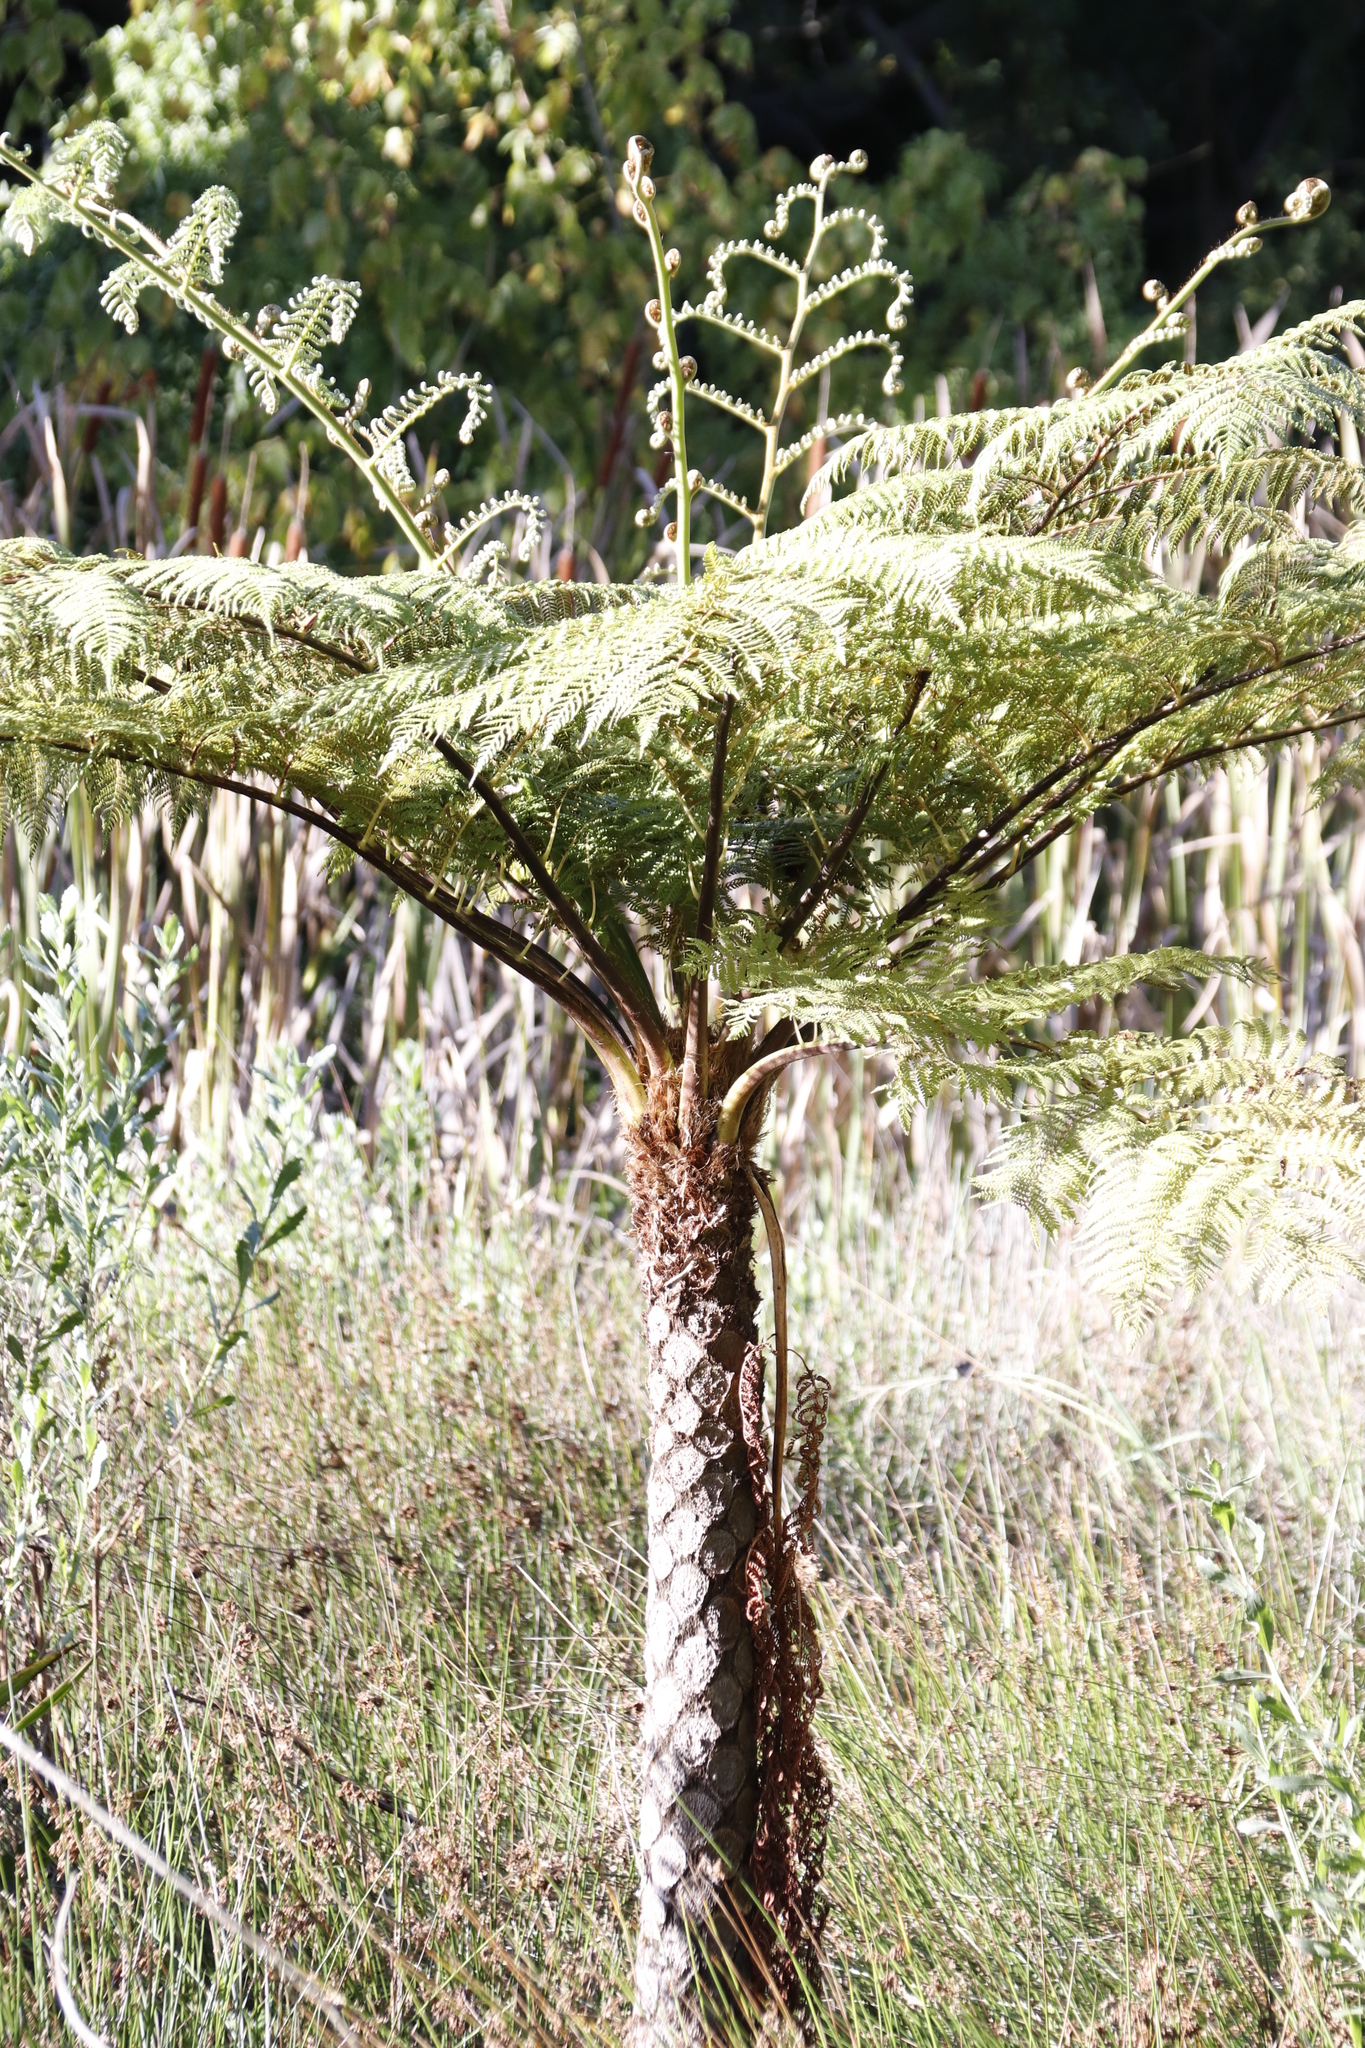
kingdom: Plantae
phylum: Tracheophyta
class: Polypodiopsida
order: Cyatheales
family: Cyatheaceae
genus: Sphaeropteris
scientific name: Sphaeropteris cooperi
